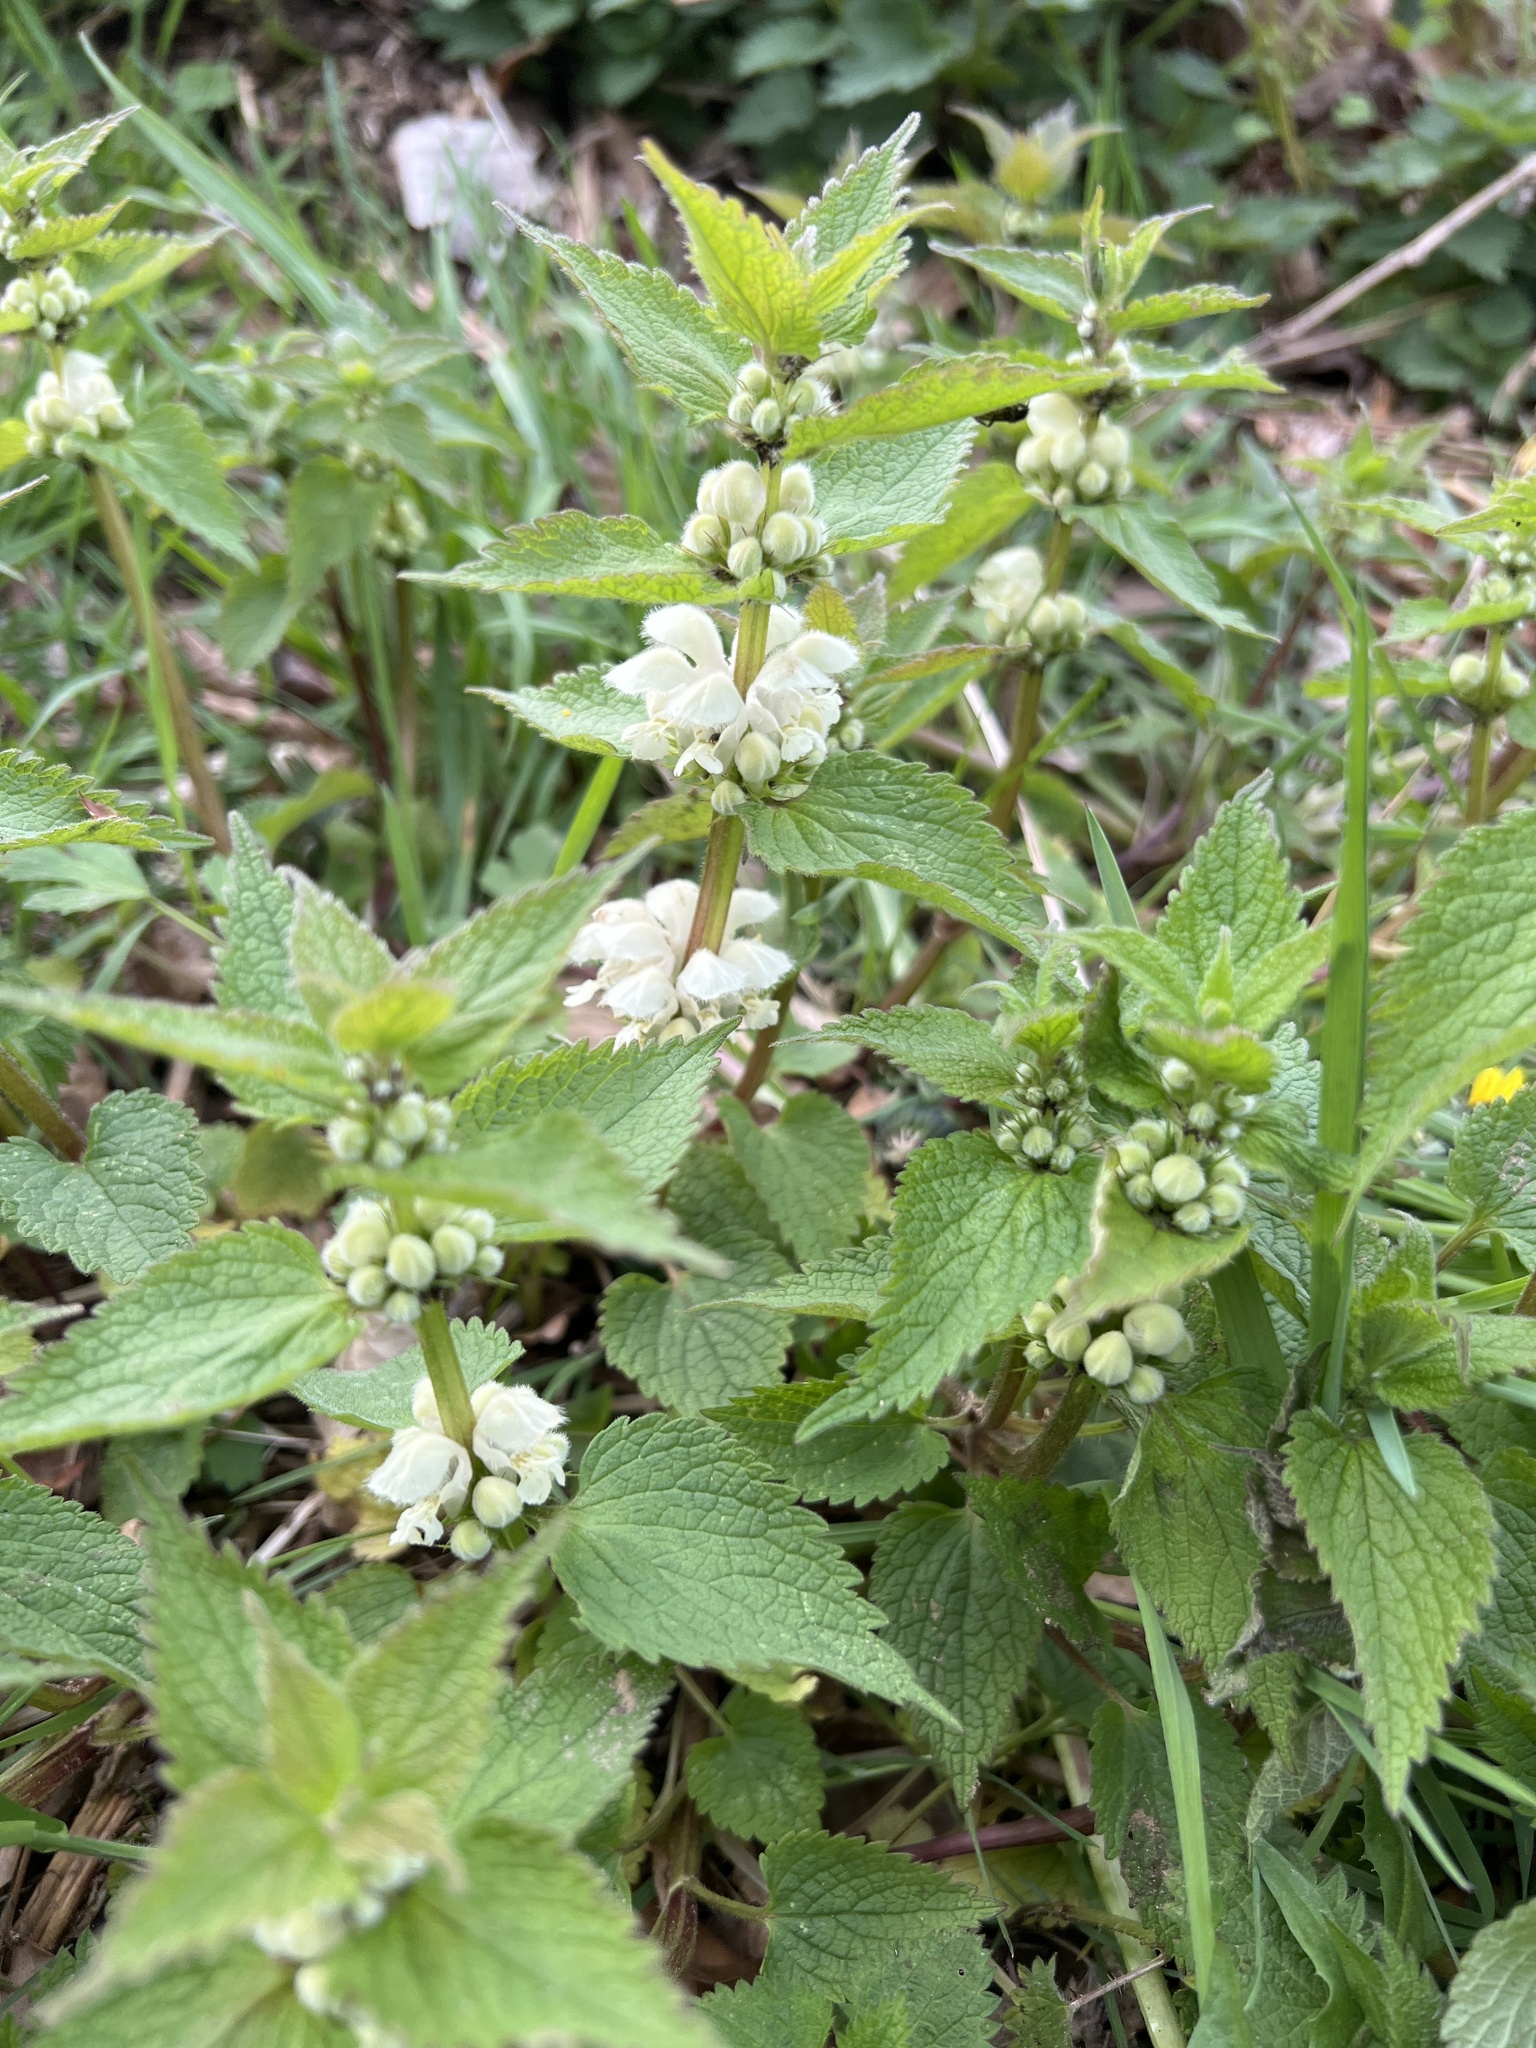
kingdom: Plantae
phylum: Tracheophyta
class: Magnoliopsida
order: Lamiales
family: Lamiaceae
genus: Lamium
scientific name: Lamium album
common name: White dead-nettle
